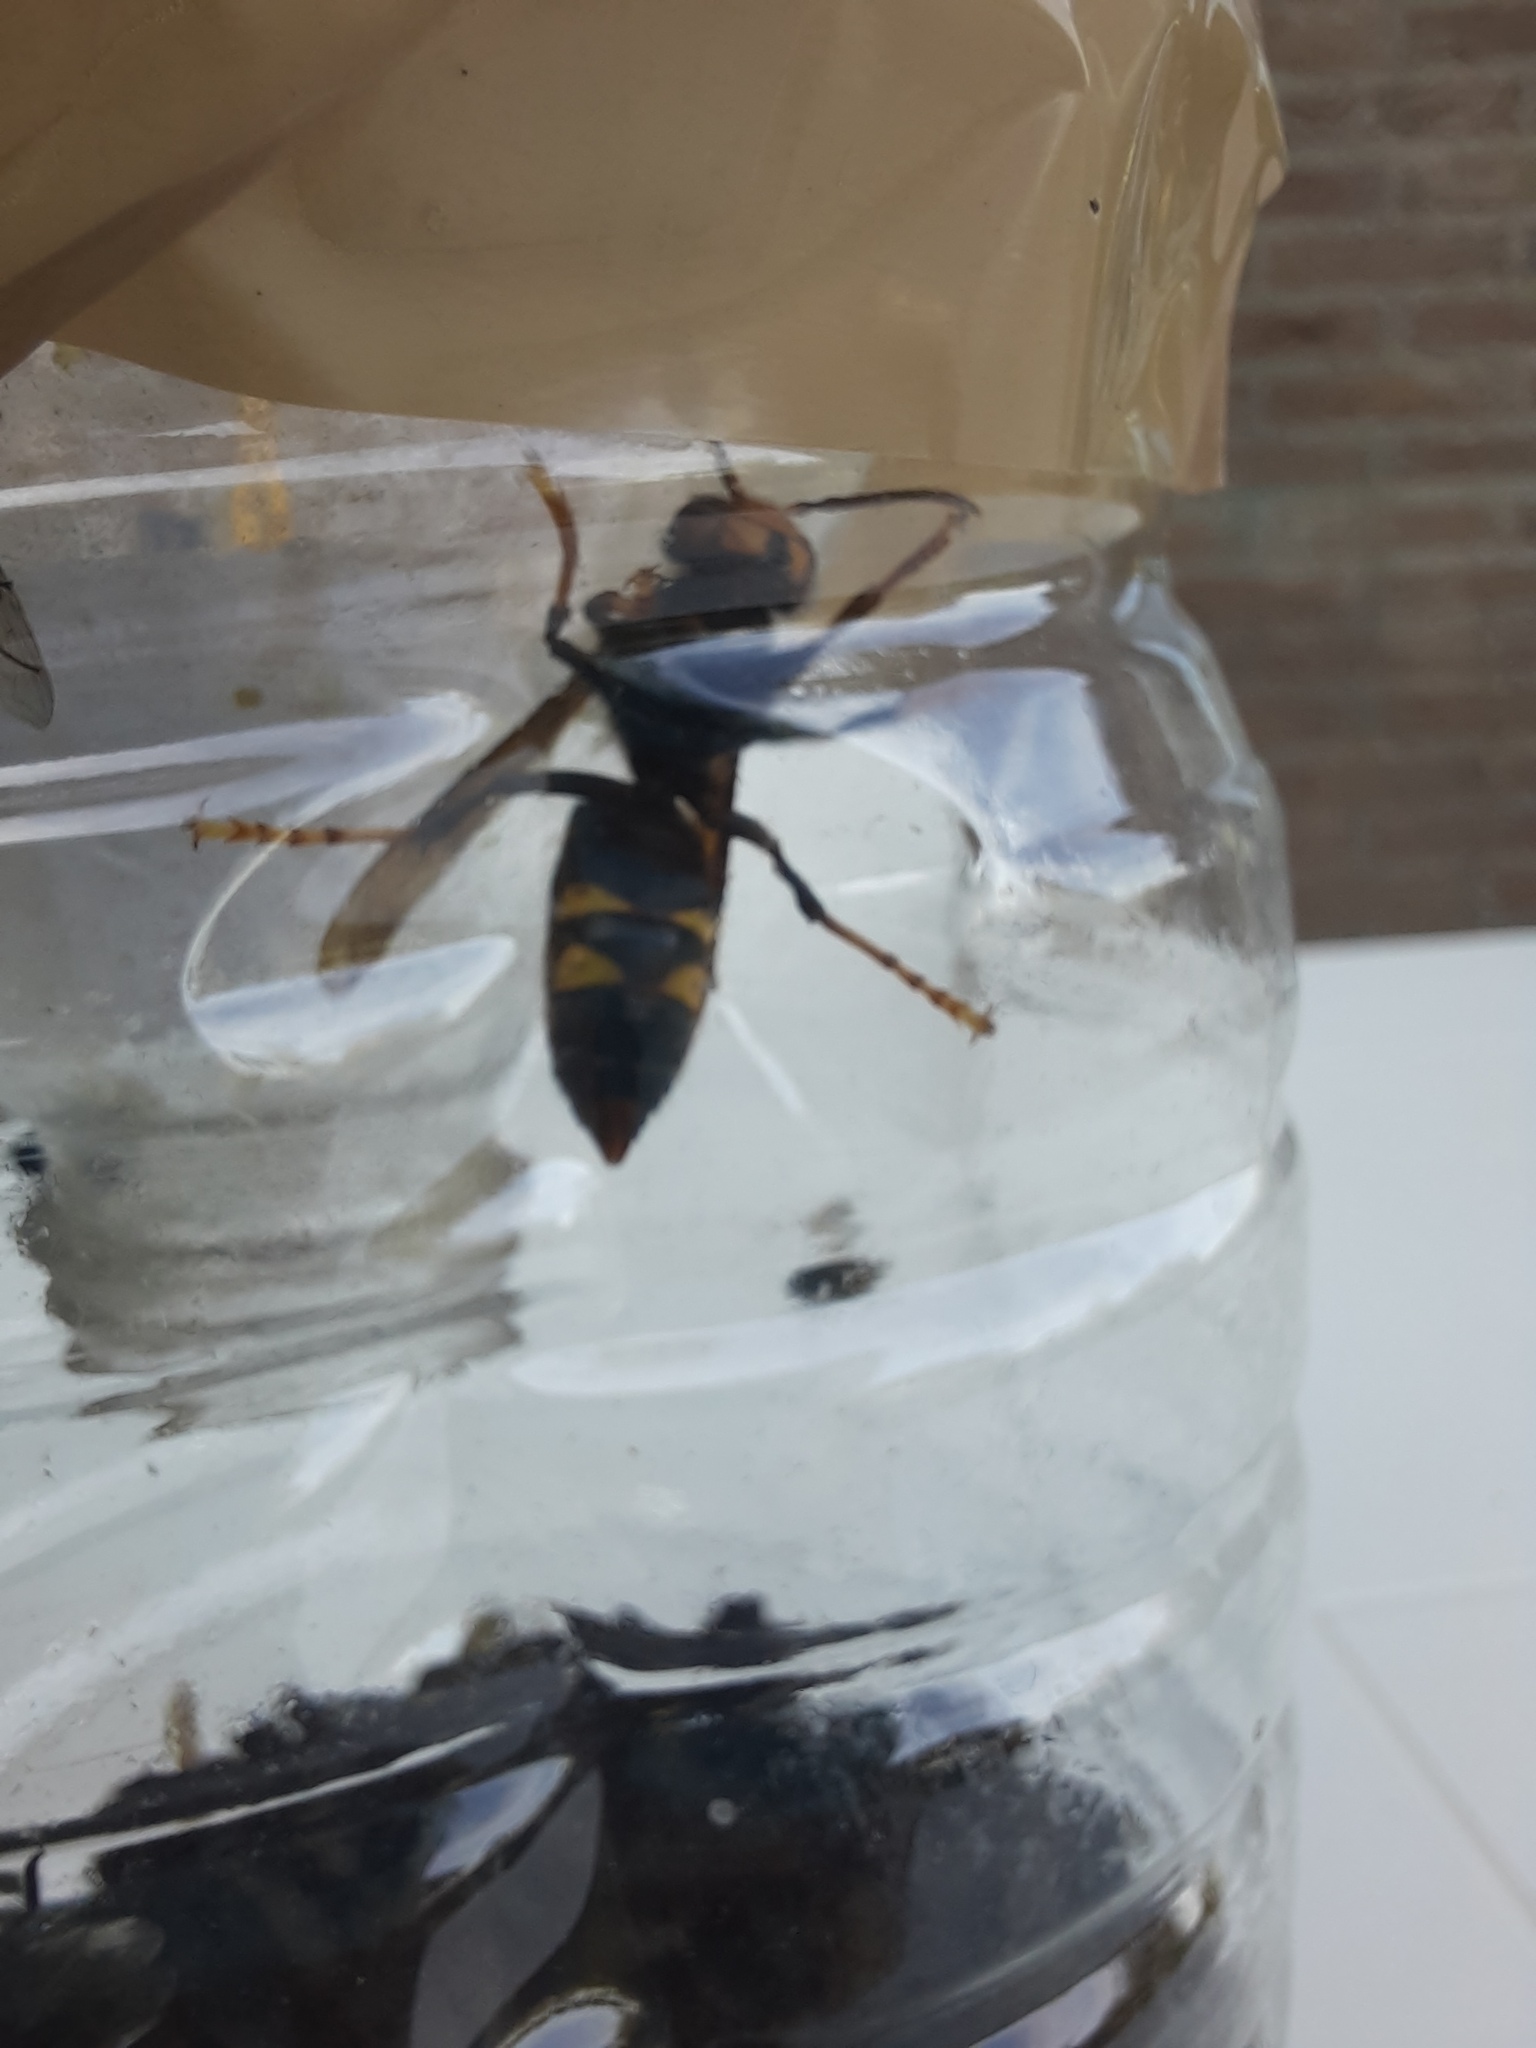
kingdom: Animalia
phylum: Arthropoda
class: Insecta
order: Hymenoptera
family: Vespidae
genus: Vespa
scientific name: Vespa velutina
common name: Asian hornet
